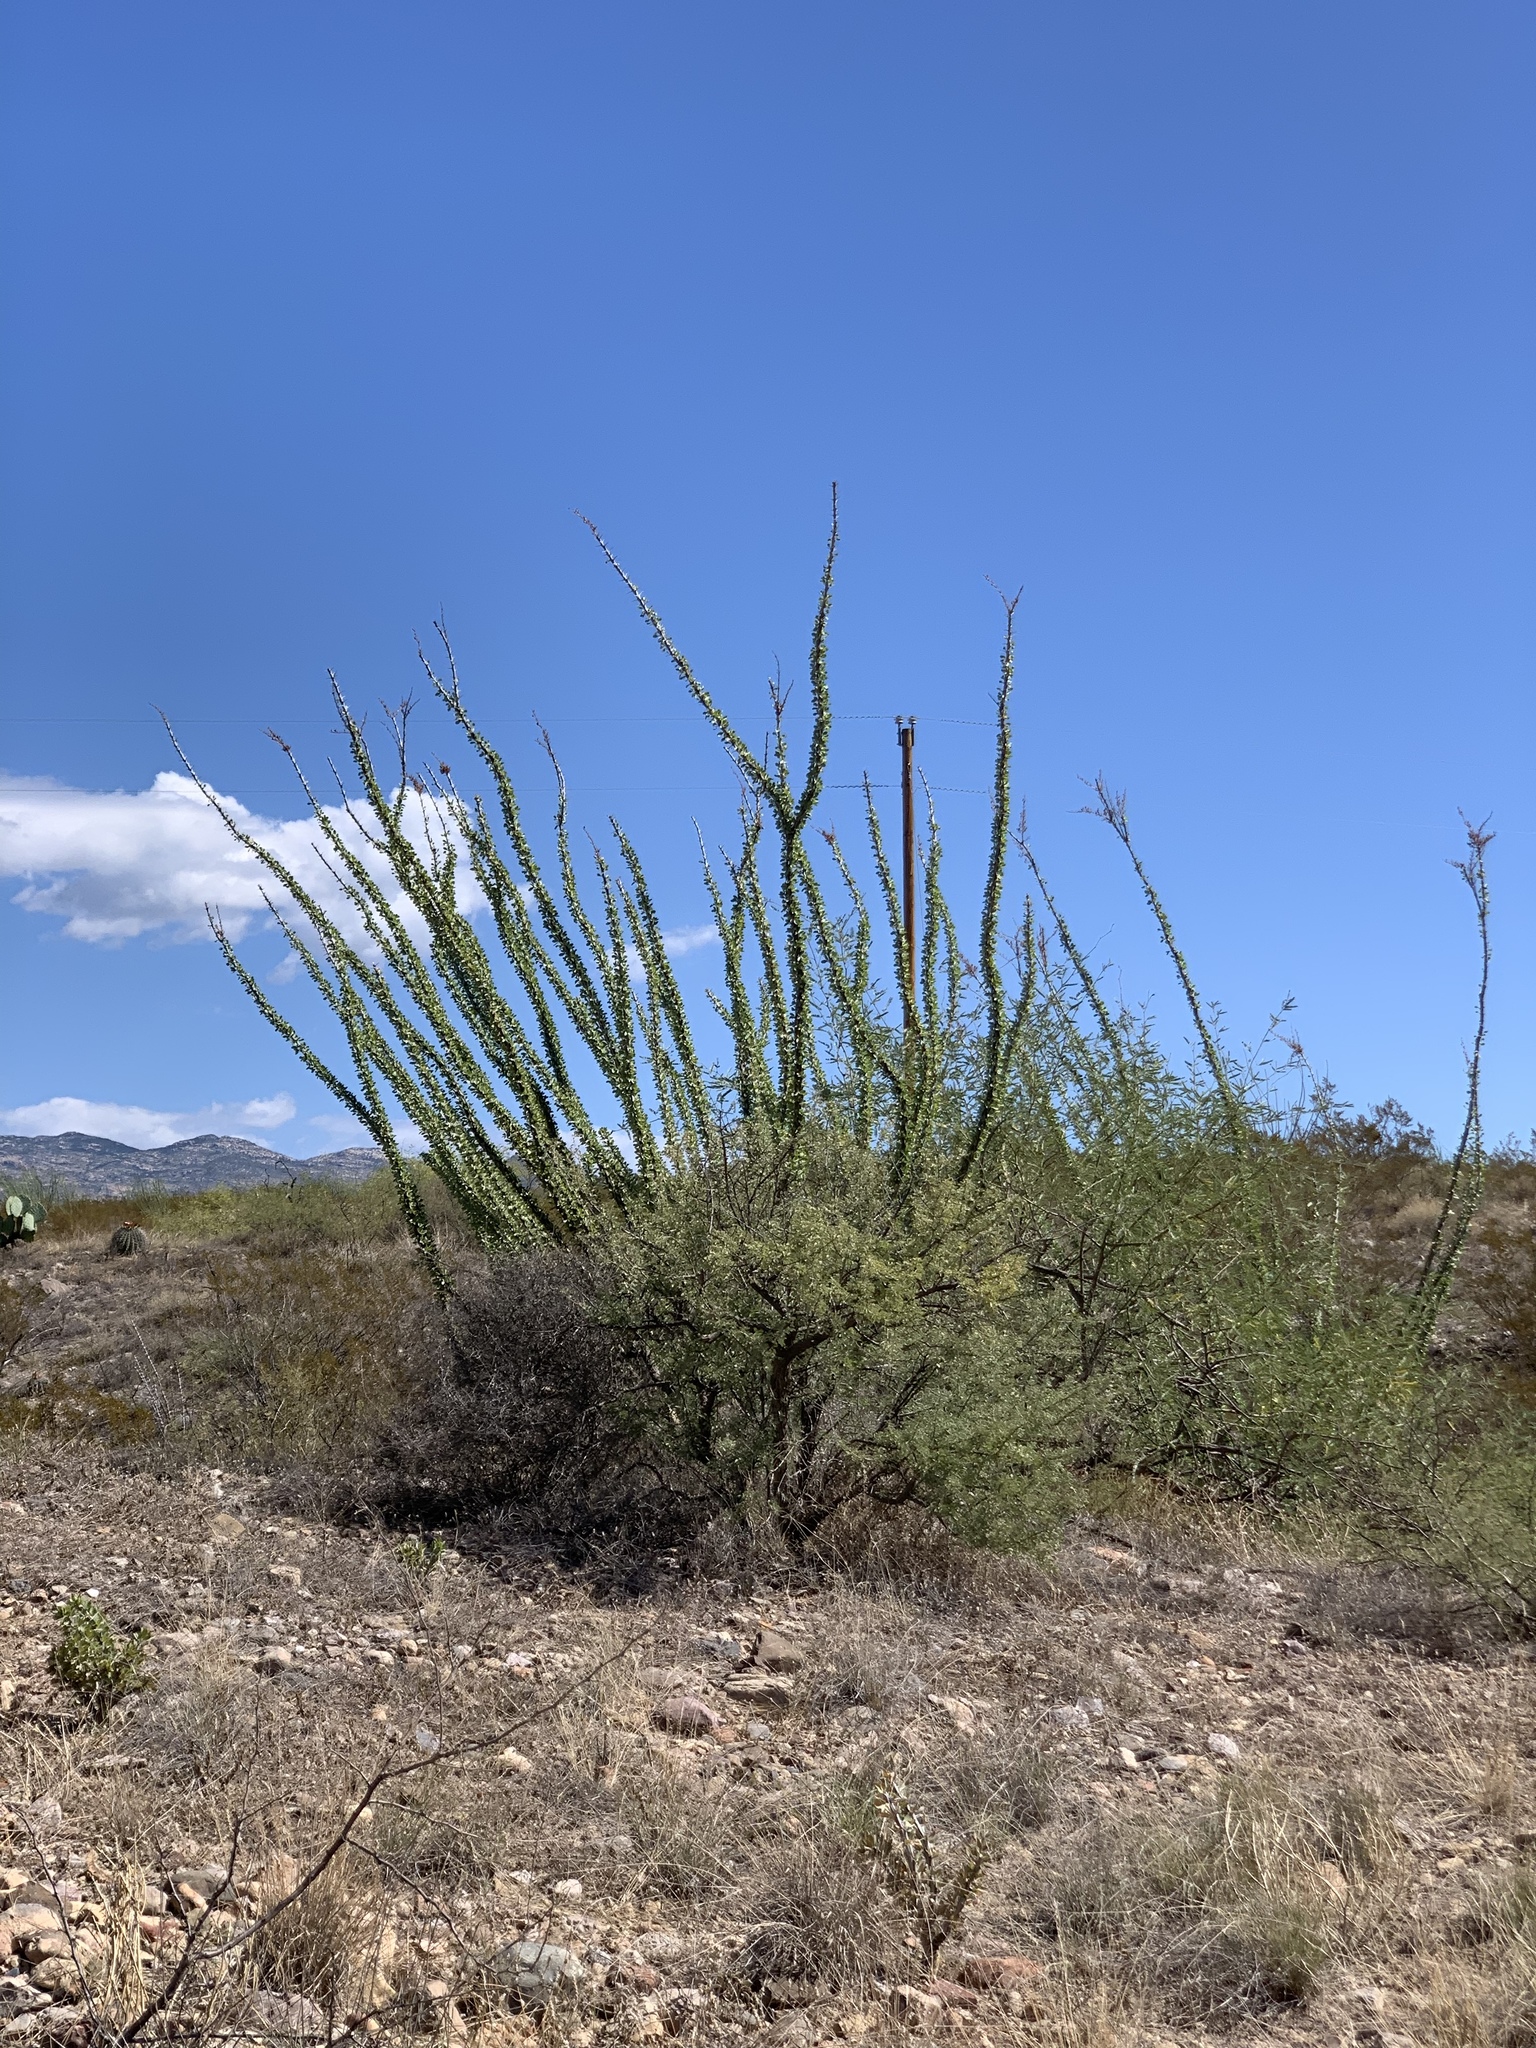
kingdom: Plantae
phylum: Tracheophyta
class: Magnoliopsida
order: Ericales
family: Fouquieriaceae
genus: Fouquieria
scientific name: Fouquieria splendens
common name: Vine-cactus
